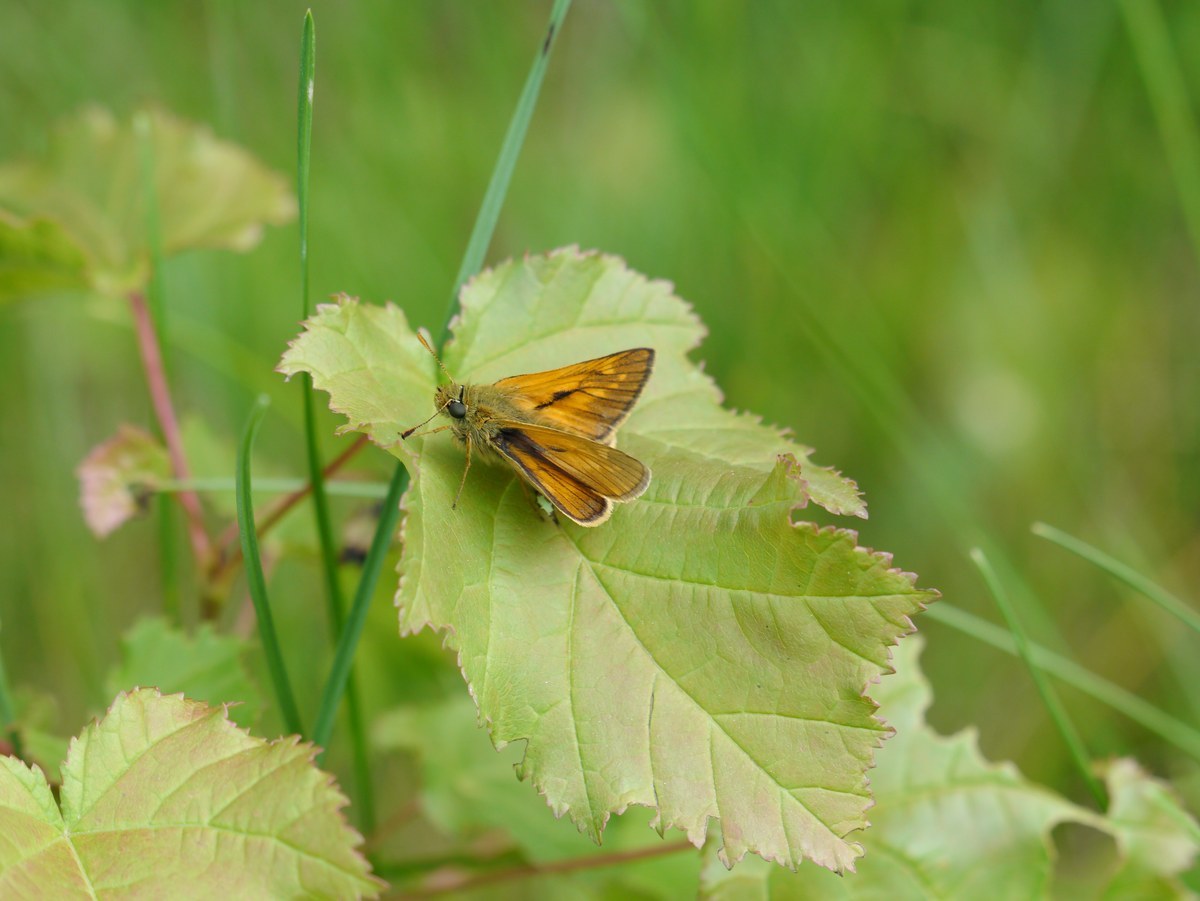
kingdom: Animalia
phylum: Arthropoda
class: Insecta
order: Lepidoptera
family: Hesperiidae
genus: Ochlodes
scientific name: Ochlodes venata
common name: Large skipper
